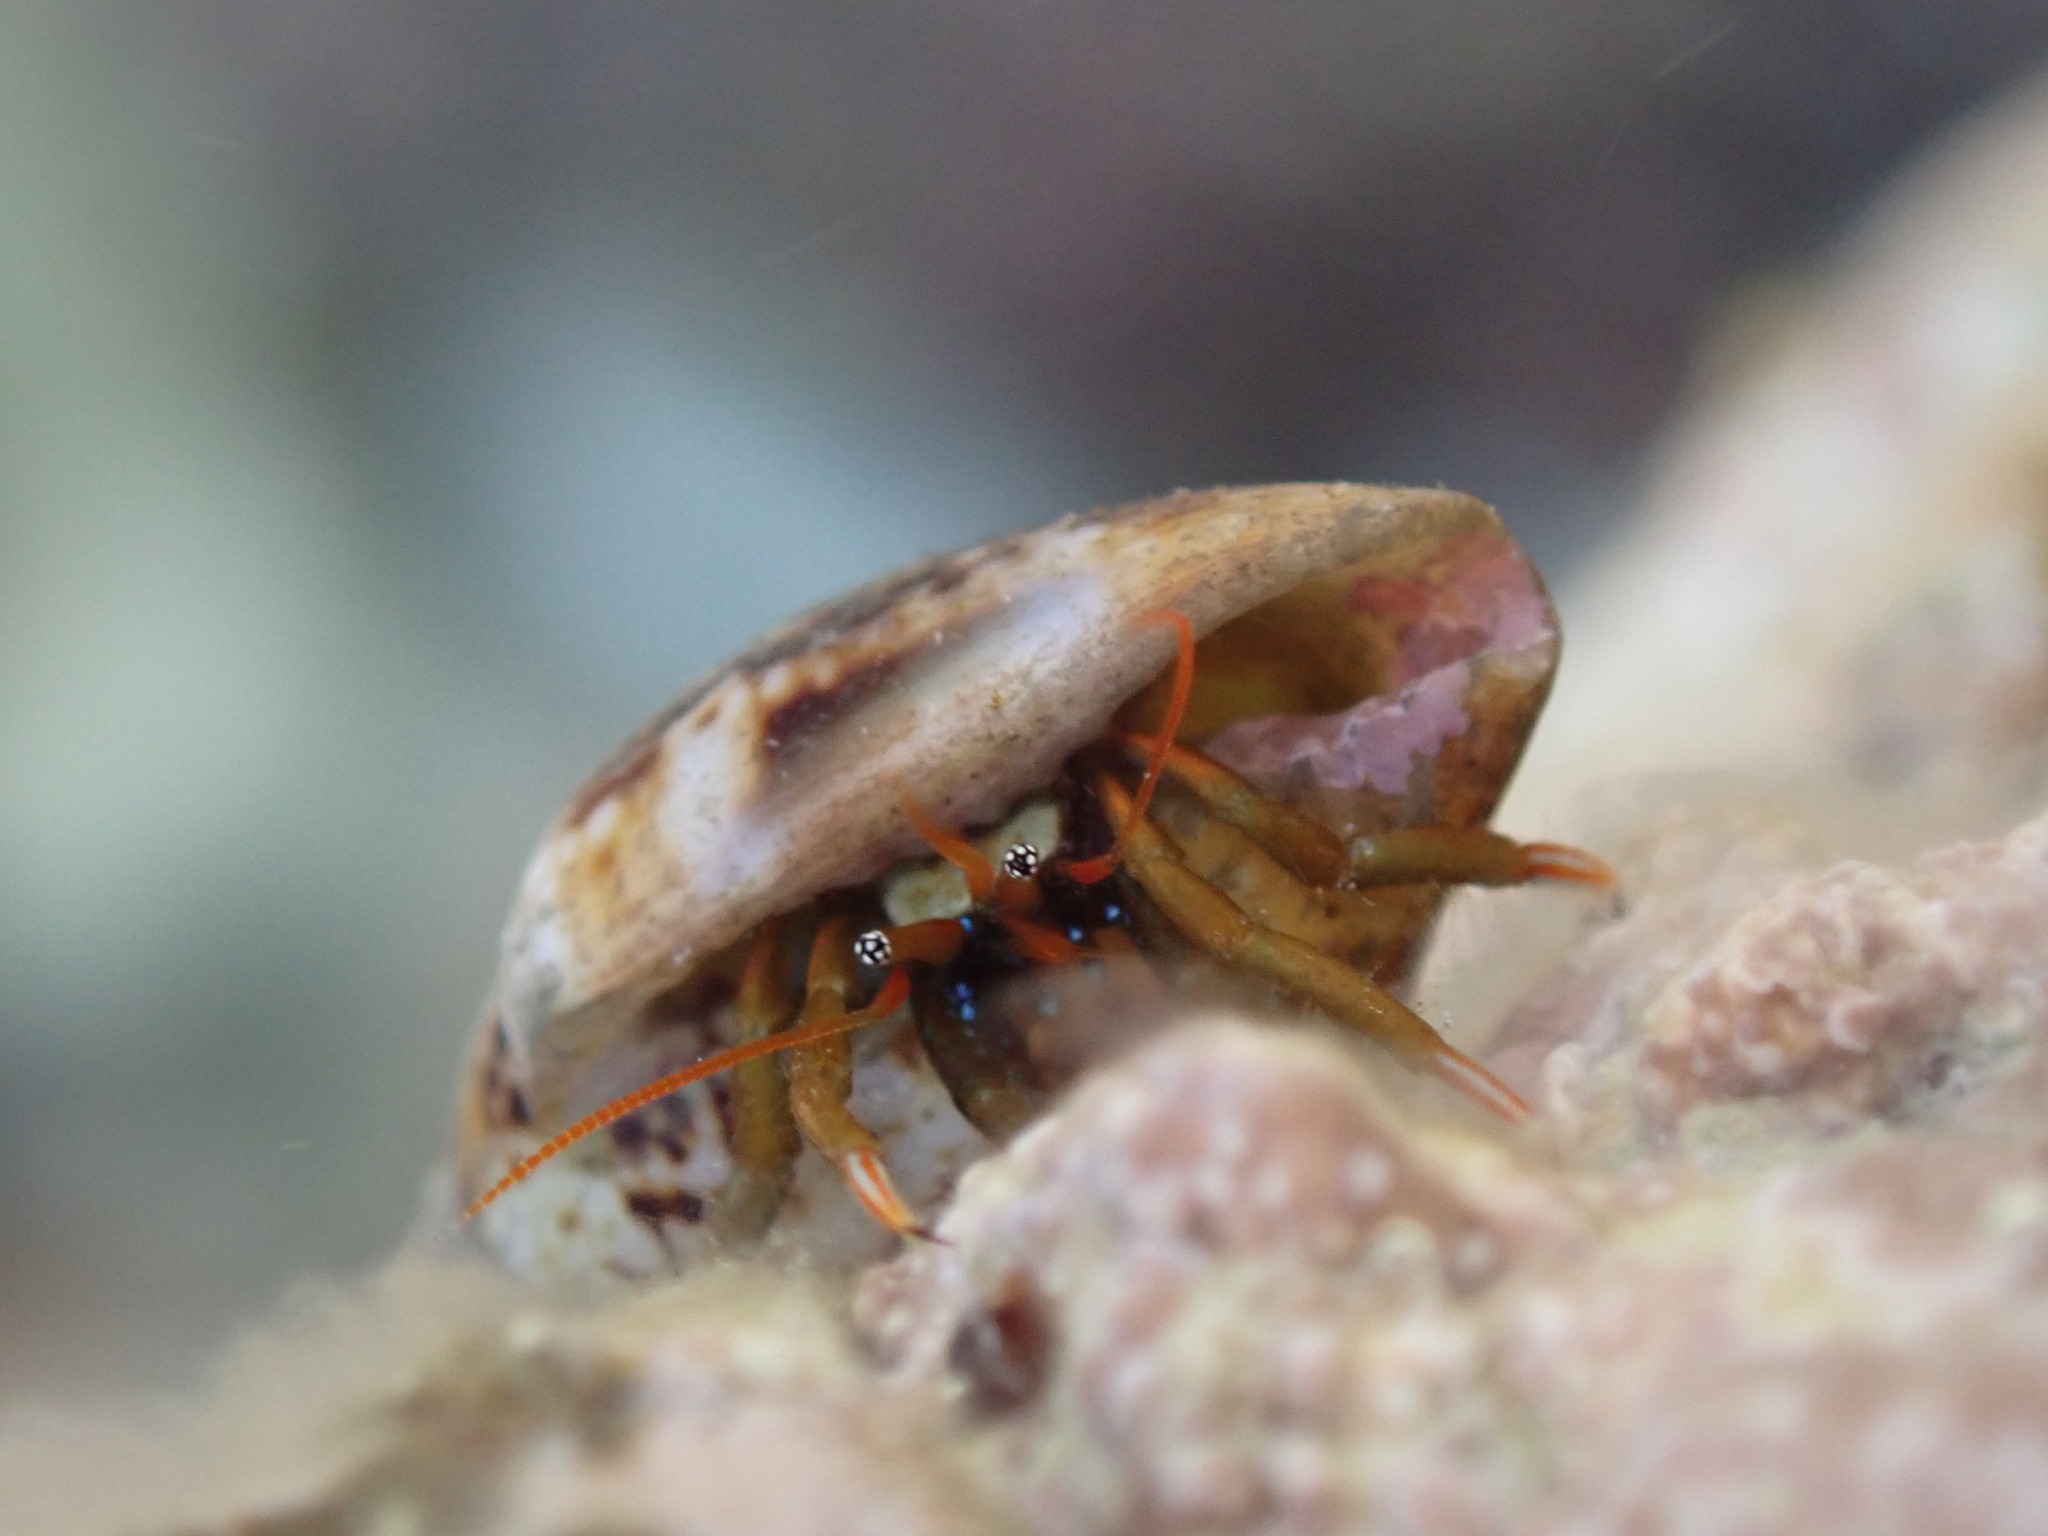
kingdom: Animalia
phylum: Mollusca
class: Gastropoda
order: Neogastropoda
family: Columbellidae
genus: Columbella
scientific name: Columbella rustica
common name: Rustic dove shell
